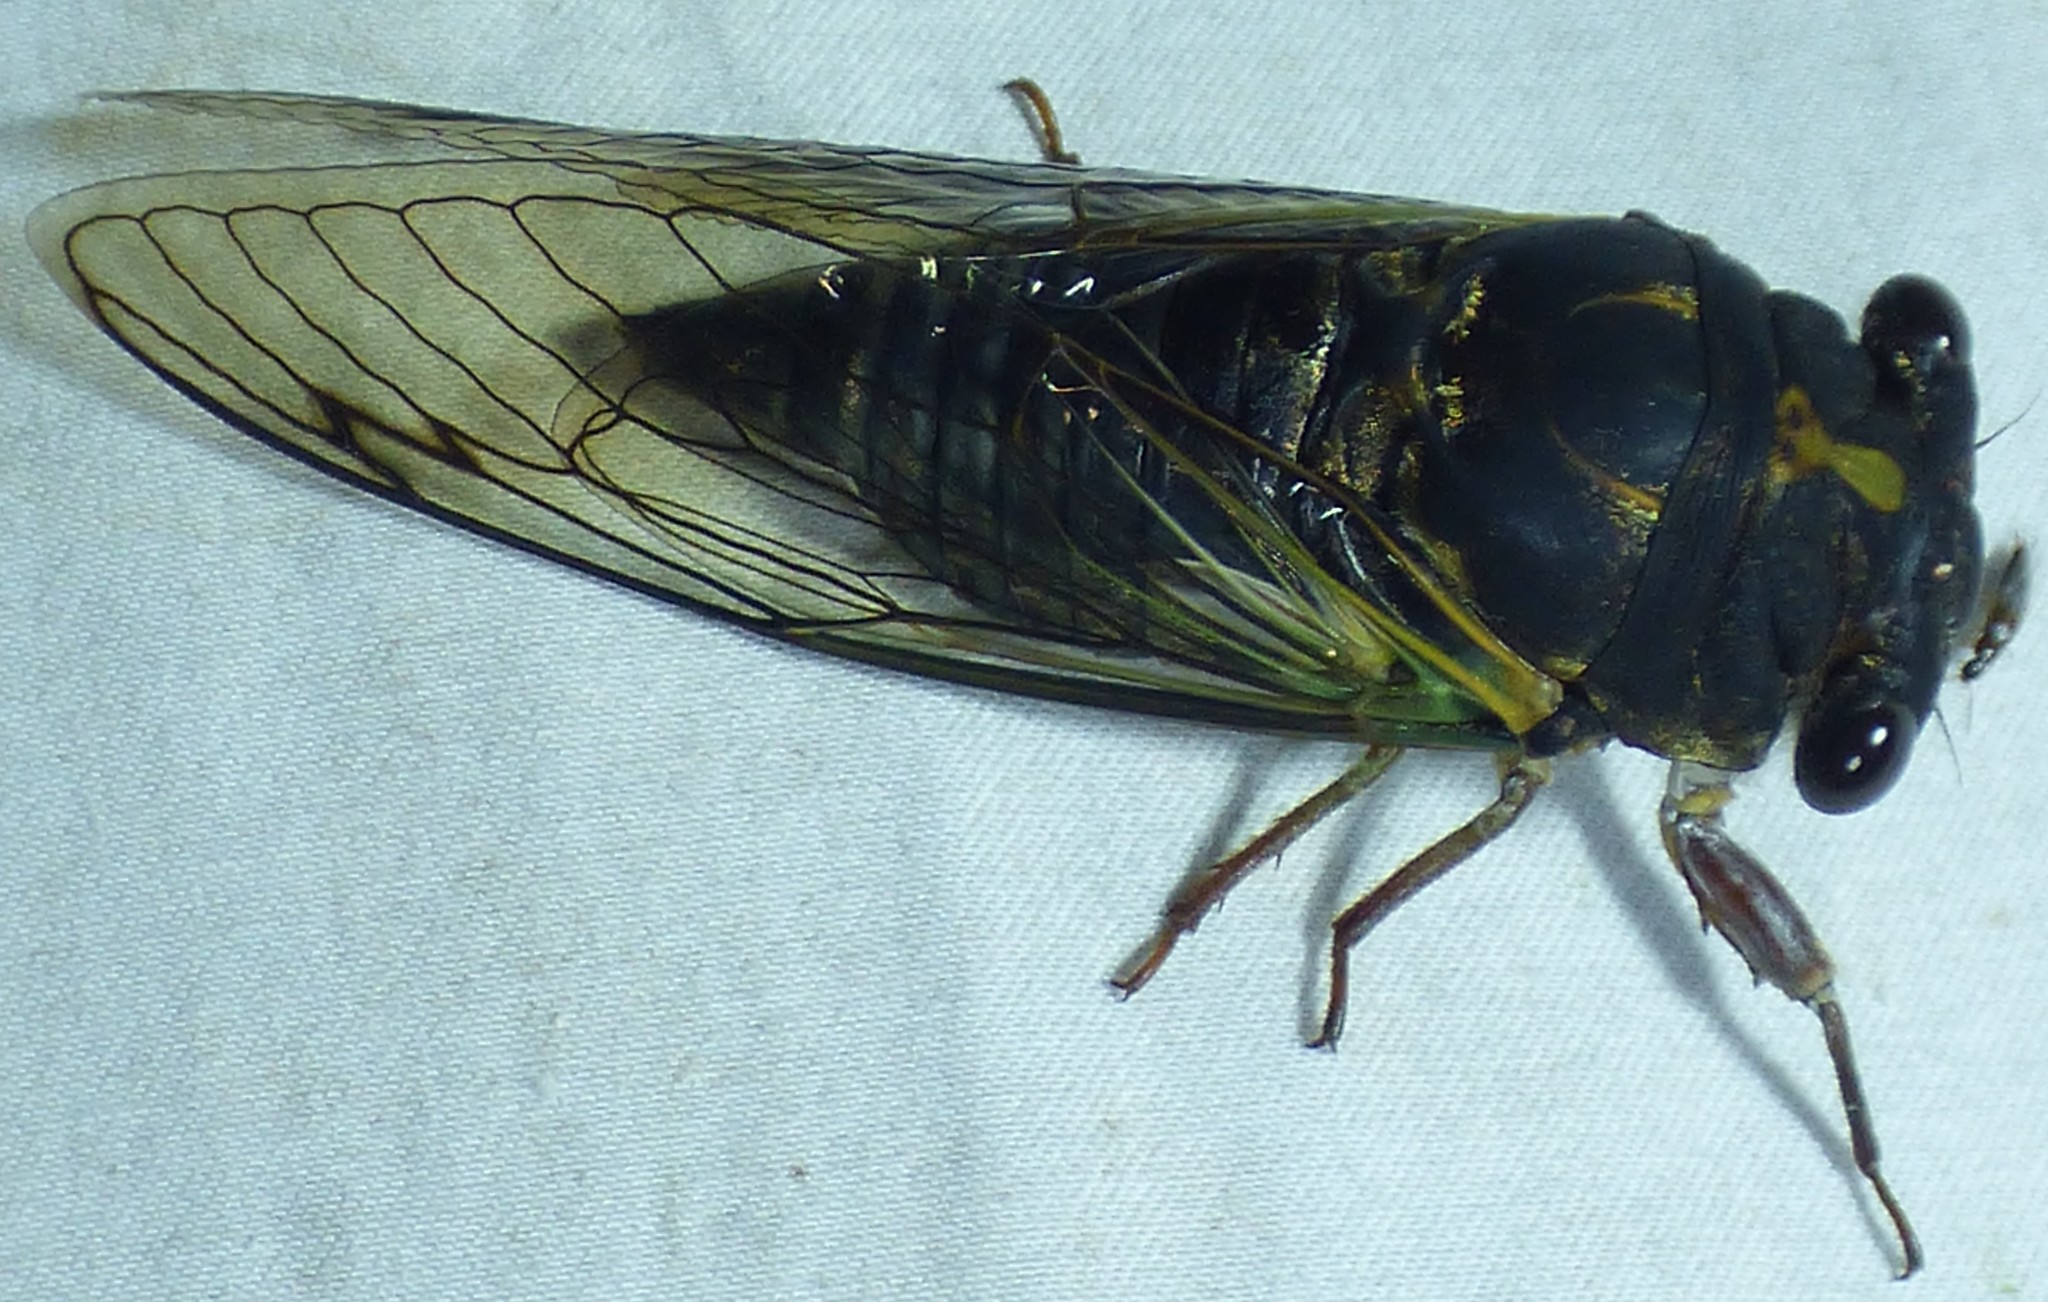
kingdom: Animalia
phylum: Arthropoda
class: Insecta
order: Hemiptera
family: Cicadidae
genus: Neotibicen
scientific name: Neotibicen lyricen
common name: Lyric cicada
